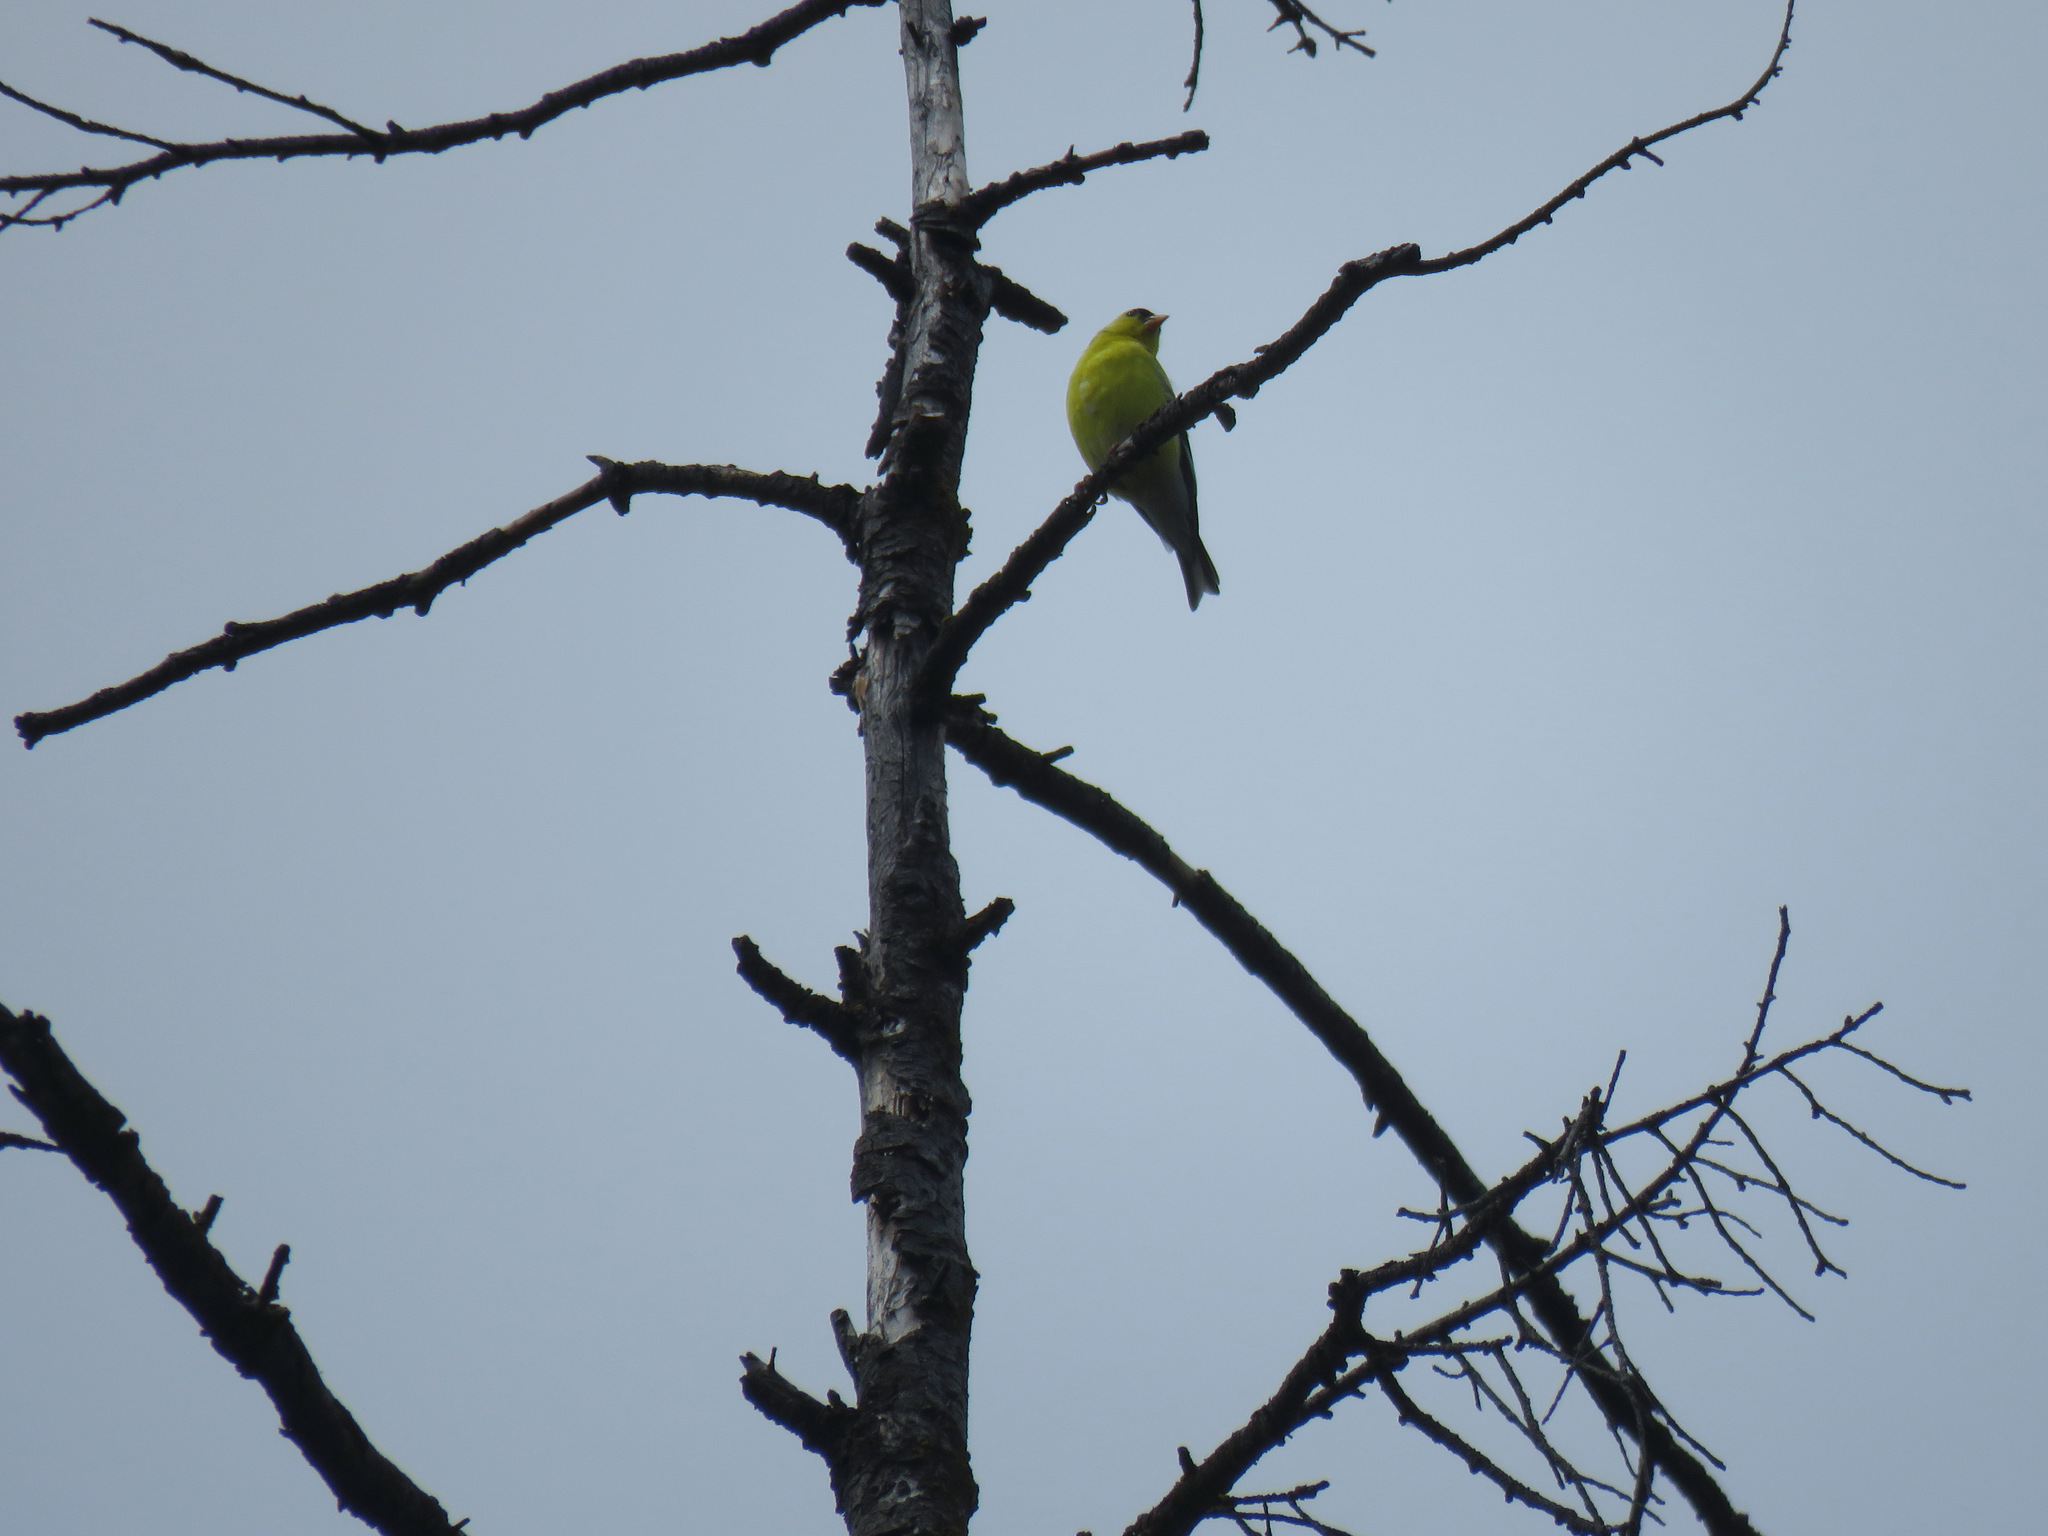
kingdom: Animalia
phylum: Chordata
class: Aves
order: Passeriformes
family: Fringillidae
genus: Spinus
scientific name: Spinus tristis
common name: American goldfinch
